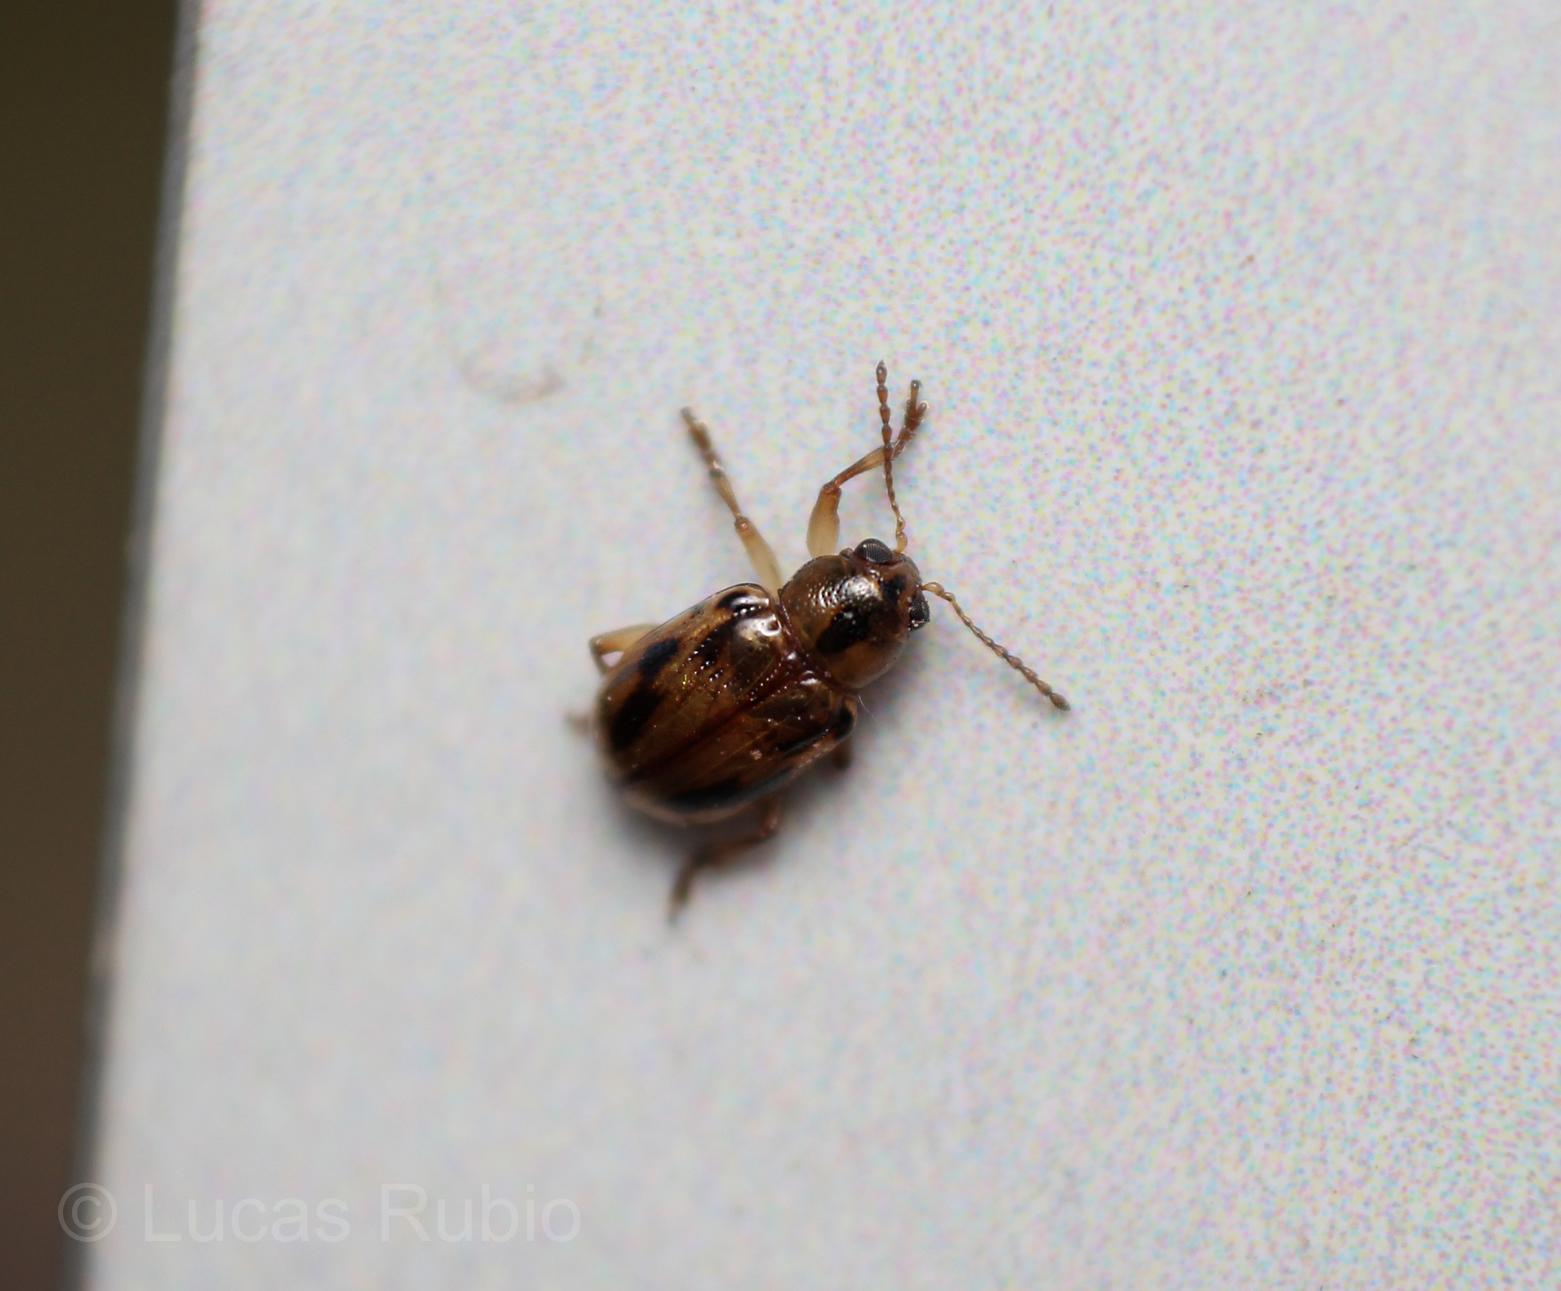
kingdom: Animalia
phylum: Arthropoda
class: Insecta
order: Coleoptera
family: Chrysomelidae
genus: Paria
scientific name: Paria
